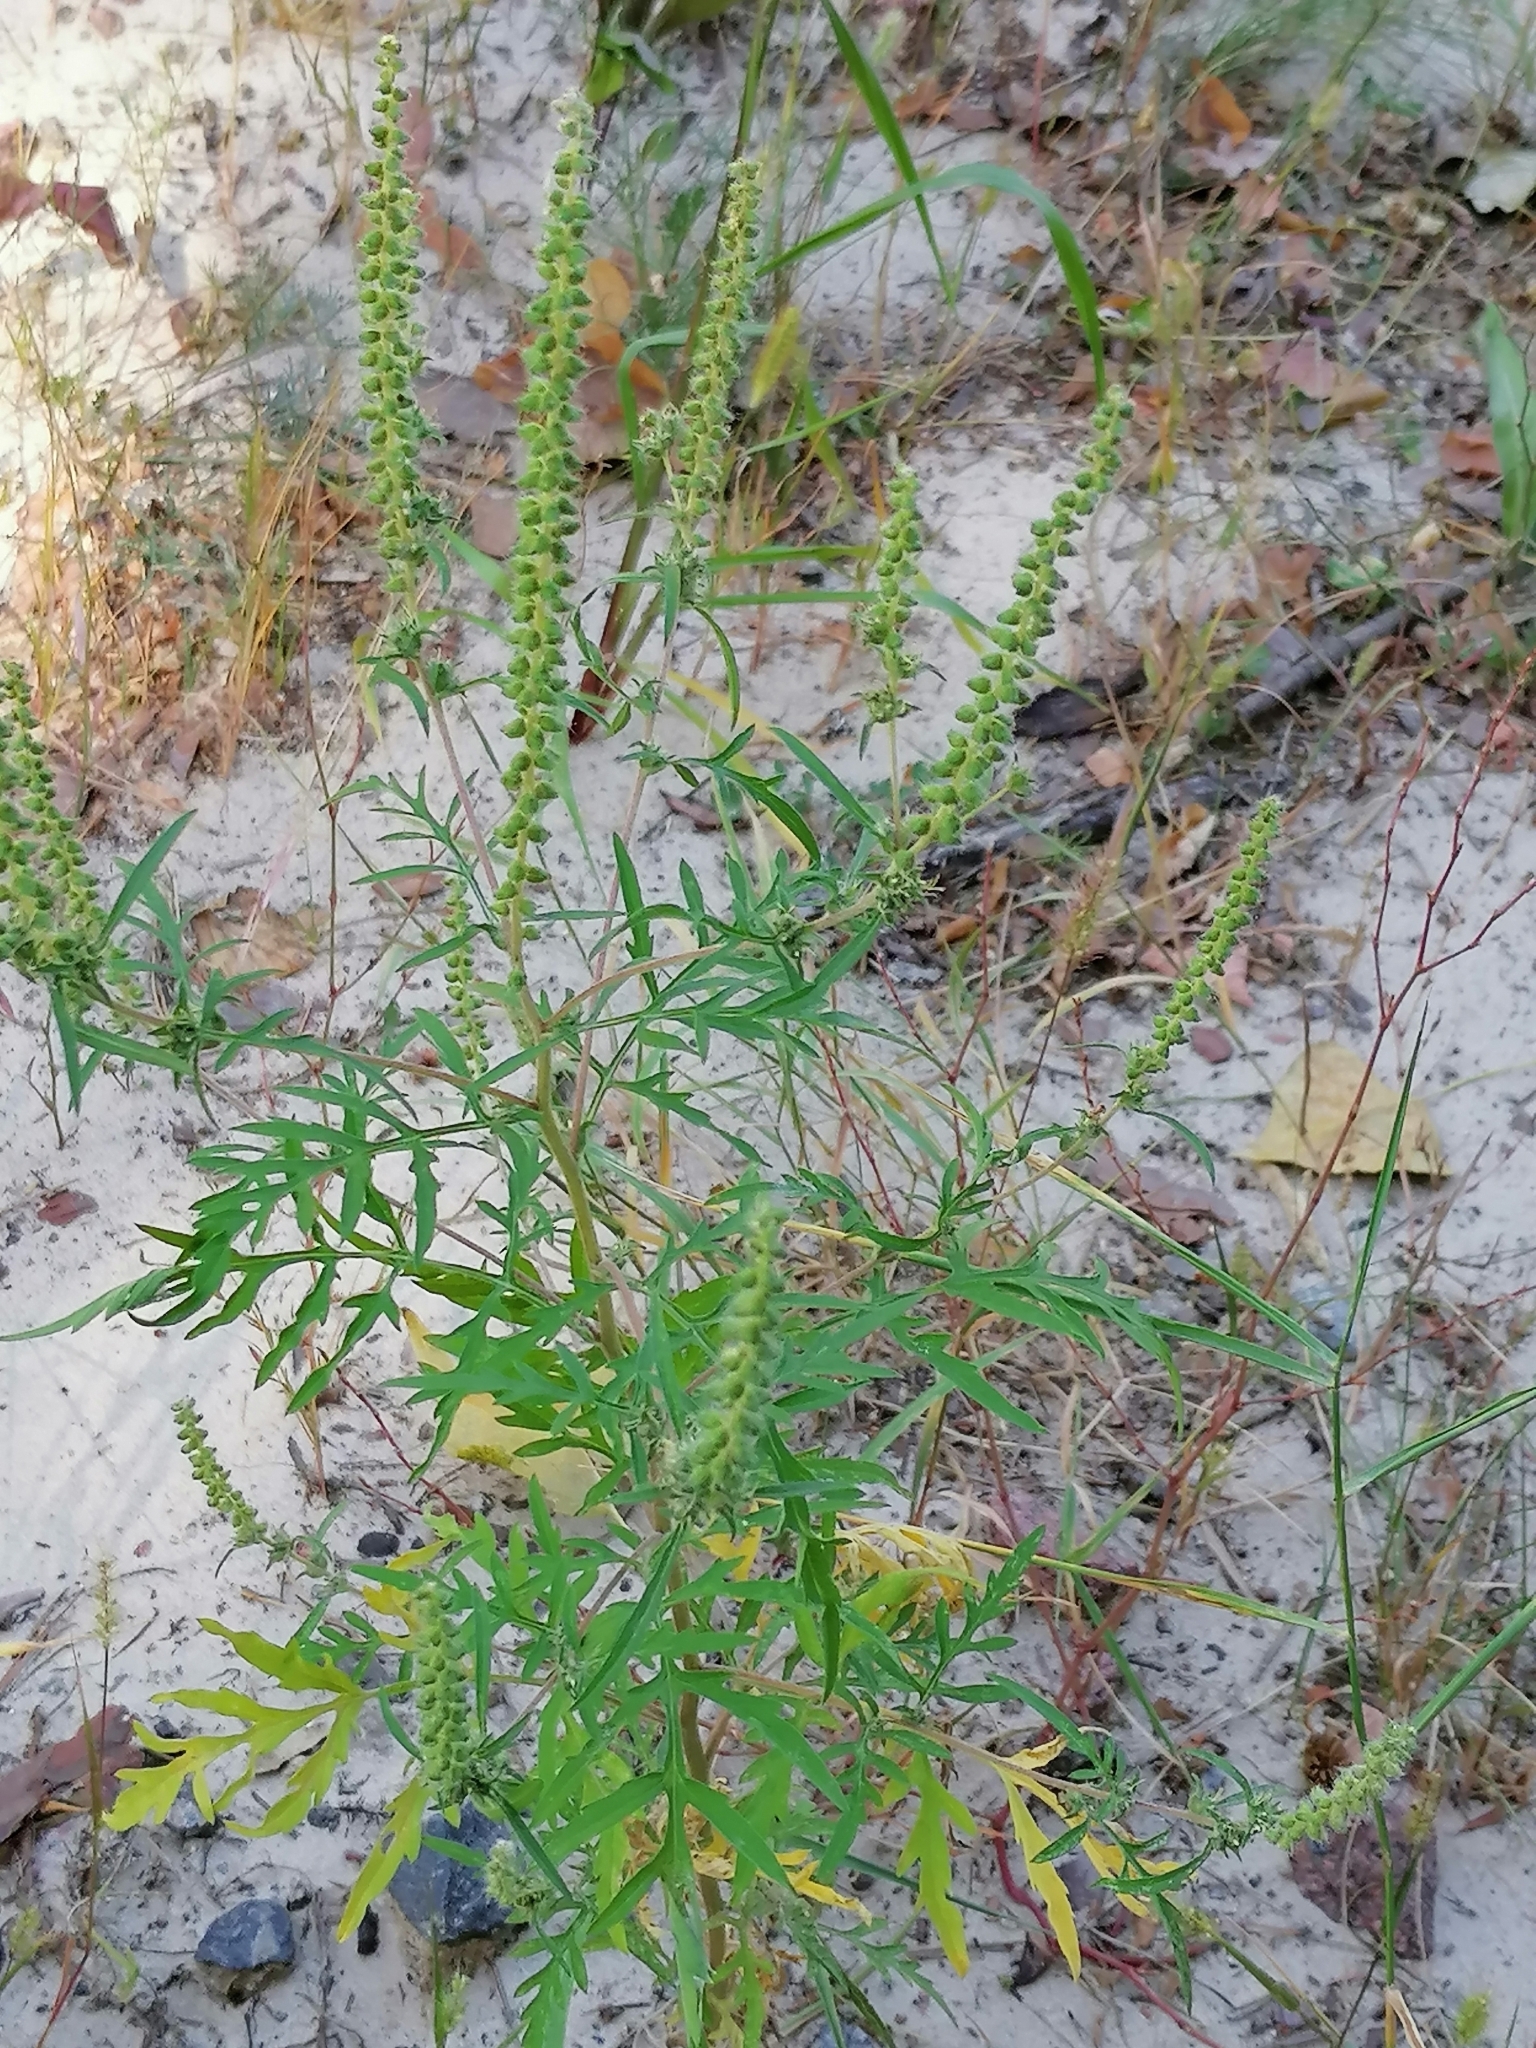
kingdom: Plantae
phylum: Tracheophyta
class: Magnoliopsida
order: Asterales
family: Asteraceae
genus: Ambrosia
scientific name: Ambrosia artemisiifolia
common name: Annual ragweed
